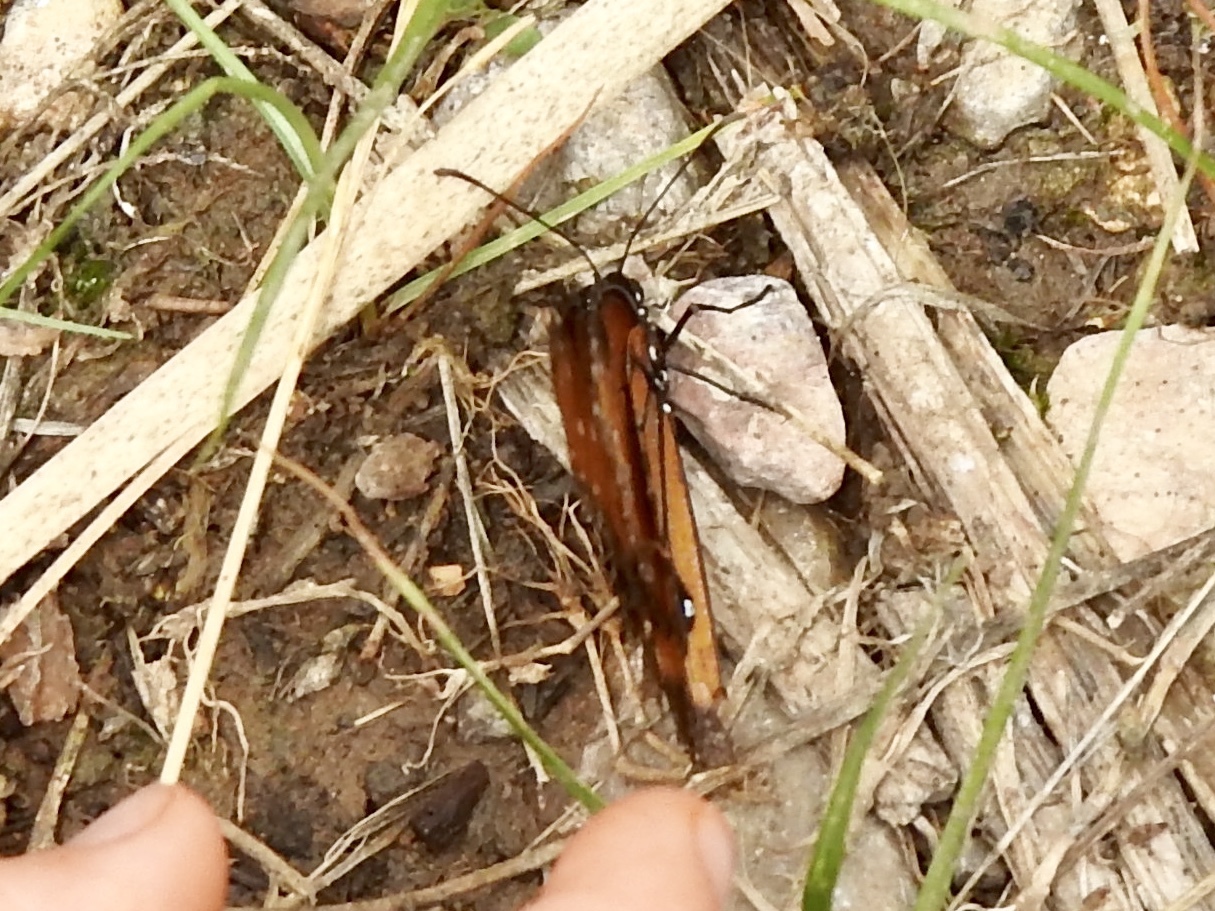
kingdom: Animalia
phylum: Arthropoda
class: Insecta
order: Lepidoptera
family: Nymphalidae
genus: Danaus
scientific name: Danaus gilippus
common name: Queen
